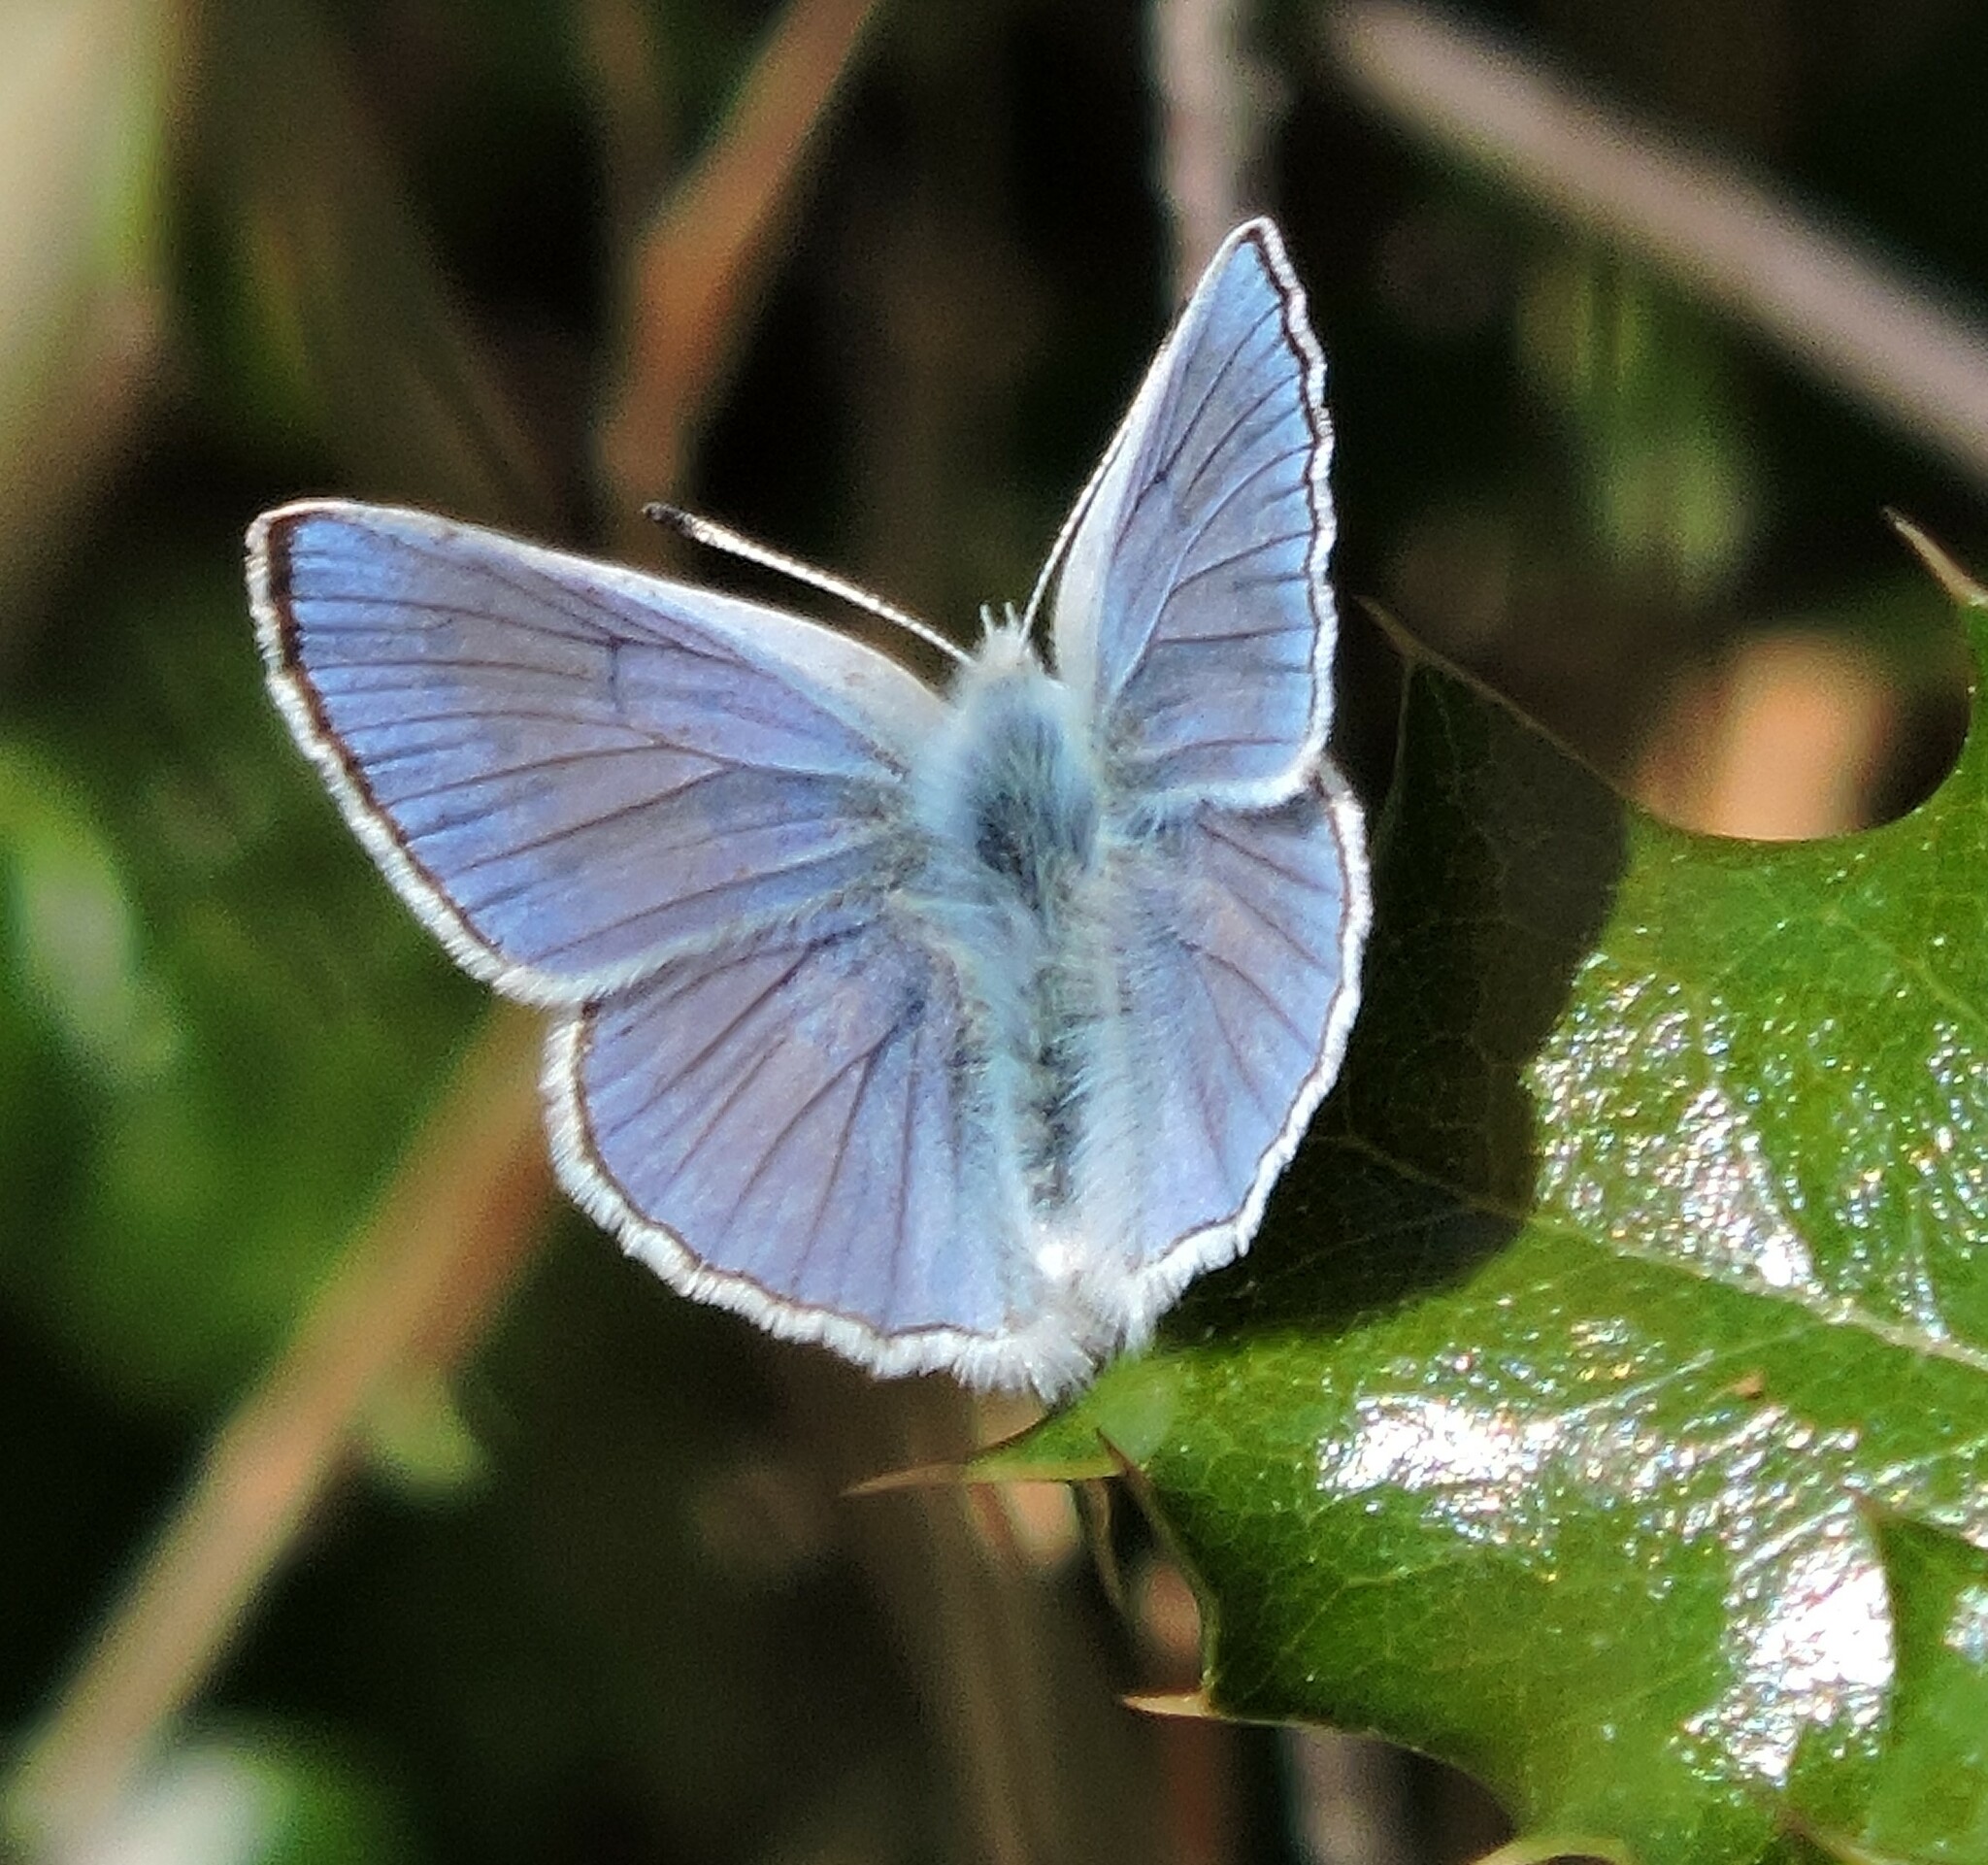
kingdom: Animalia
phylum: Arthropoda
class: Insecta
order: Lepidoptera
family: Lycaenidae
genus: Tharsalea
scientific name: Tharsalea heteronea
